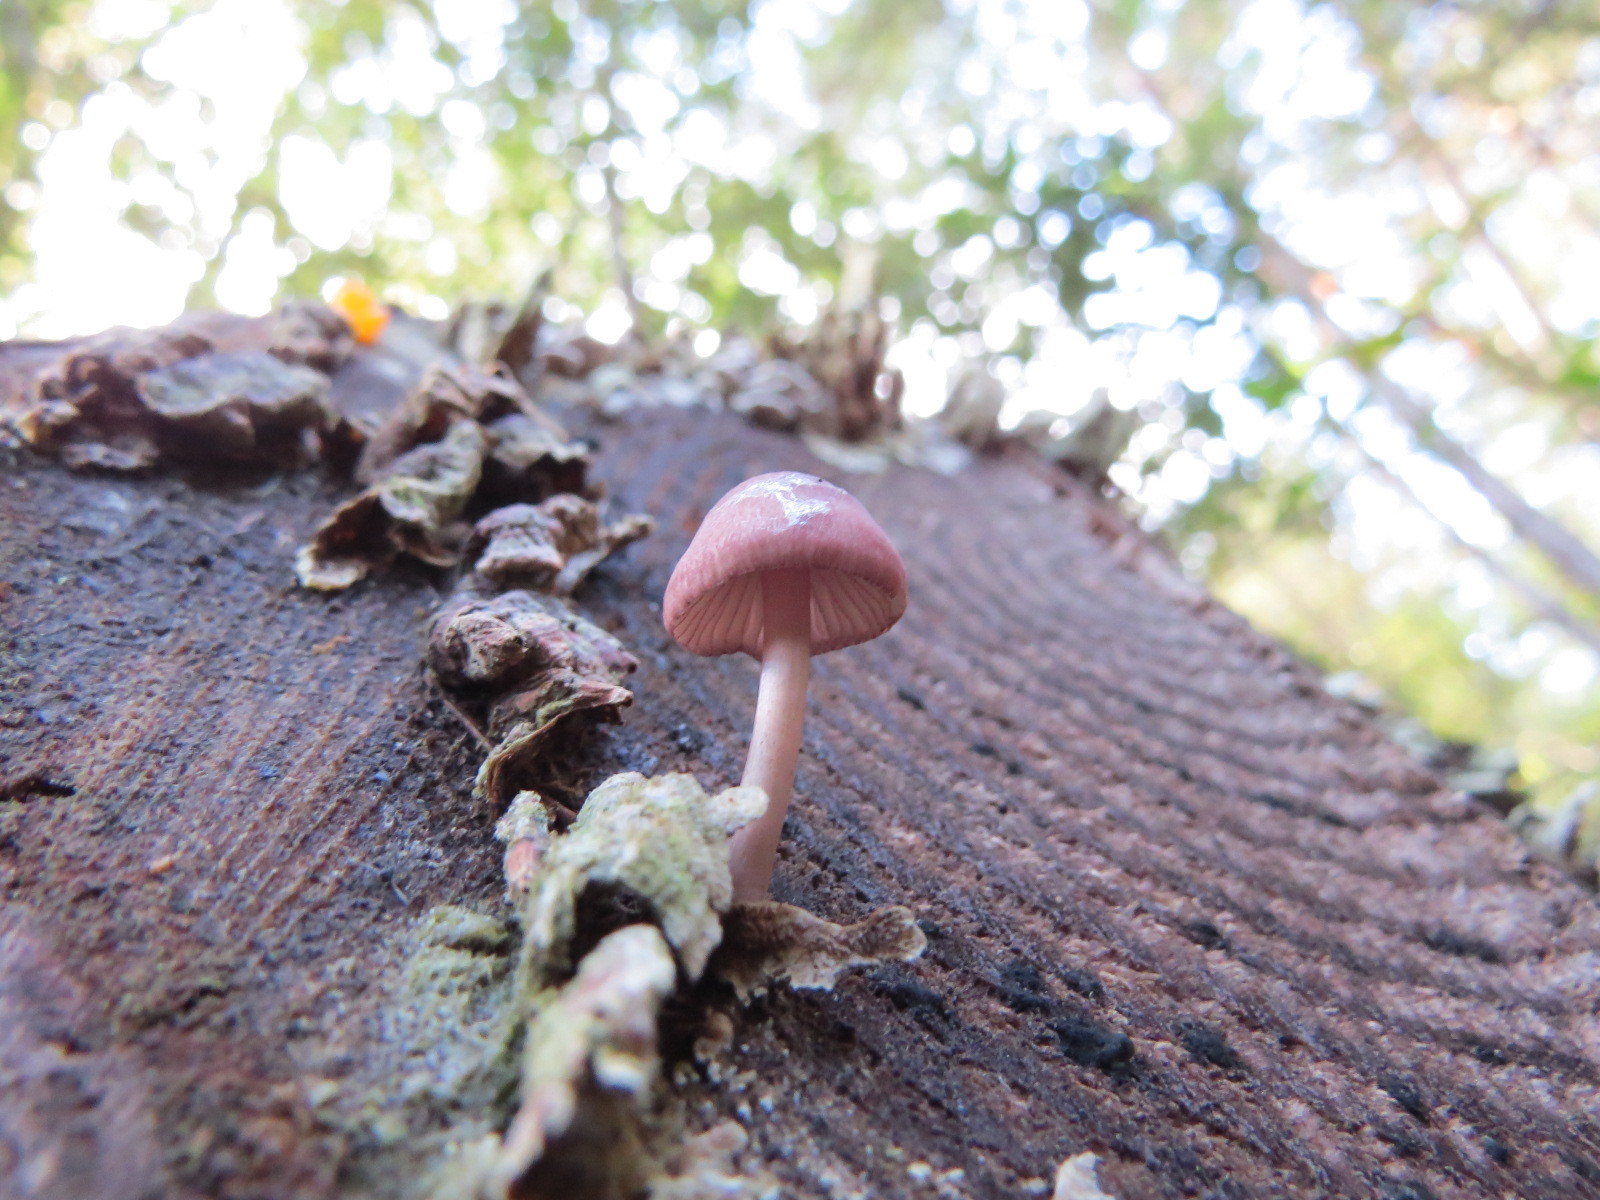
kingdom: Fungi
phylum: Basidiomycota
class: Agaricomycetes
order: Agaricales
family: Mycenaceae
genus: Mycena
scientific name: Mycena haematopus
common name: Burgundydrop bonnet
